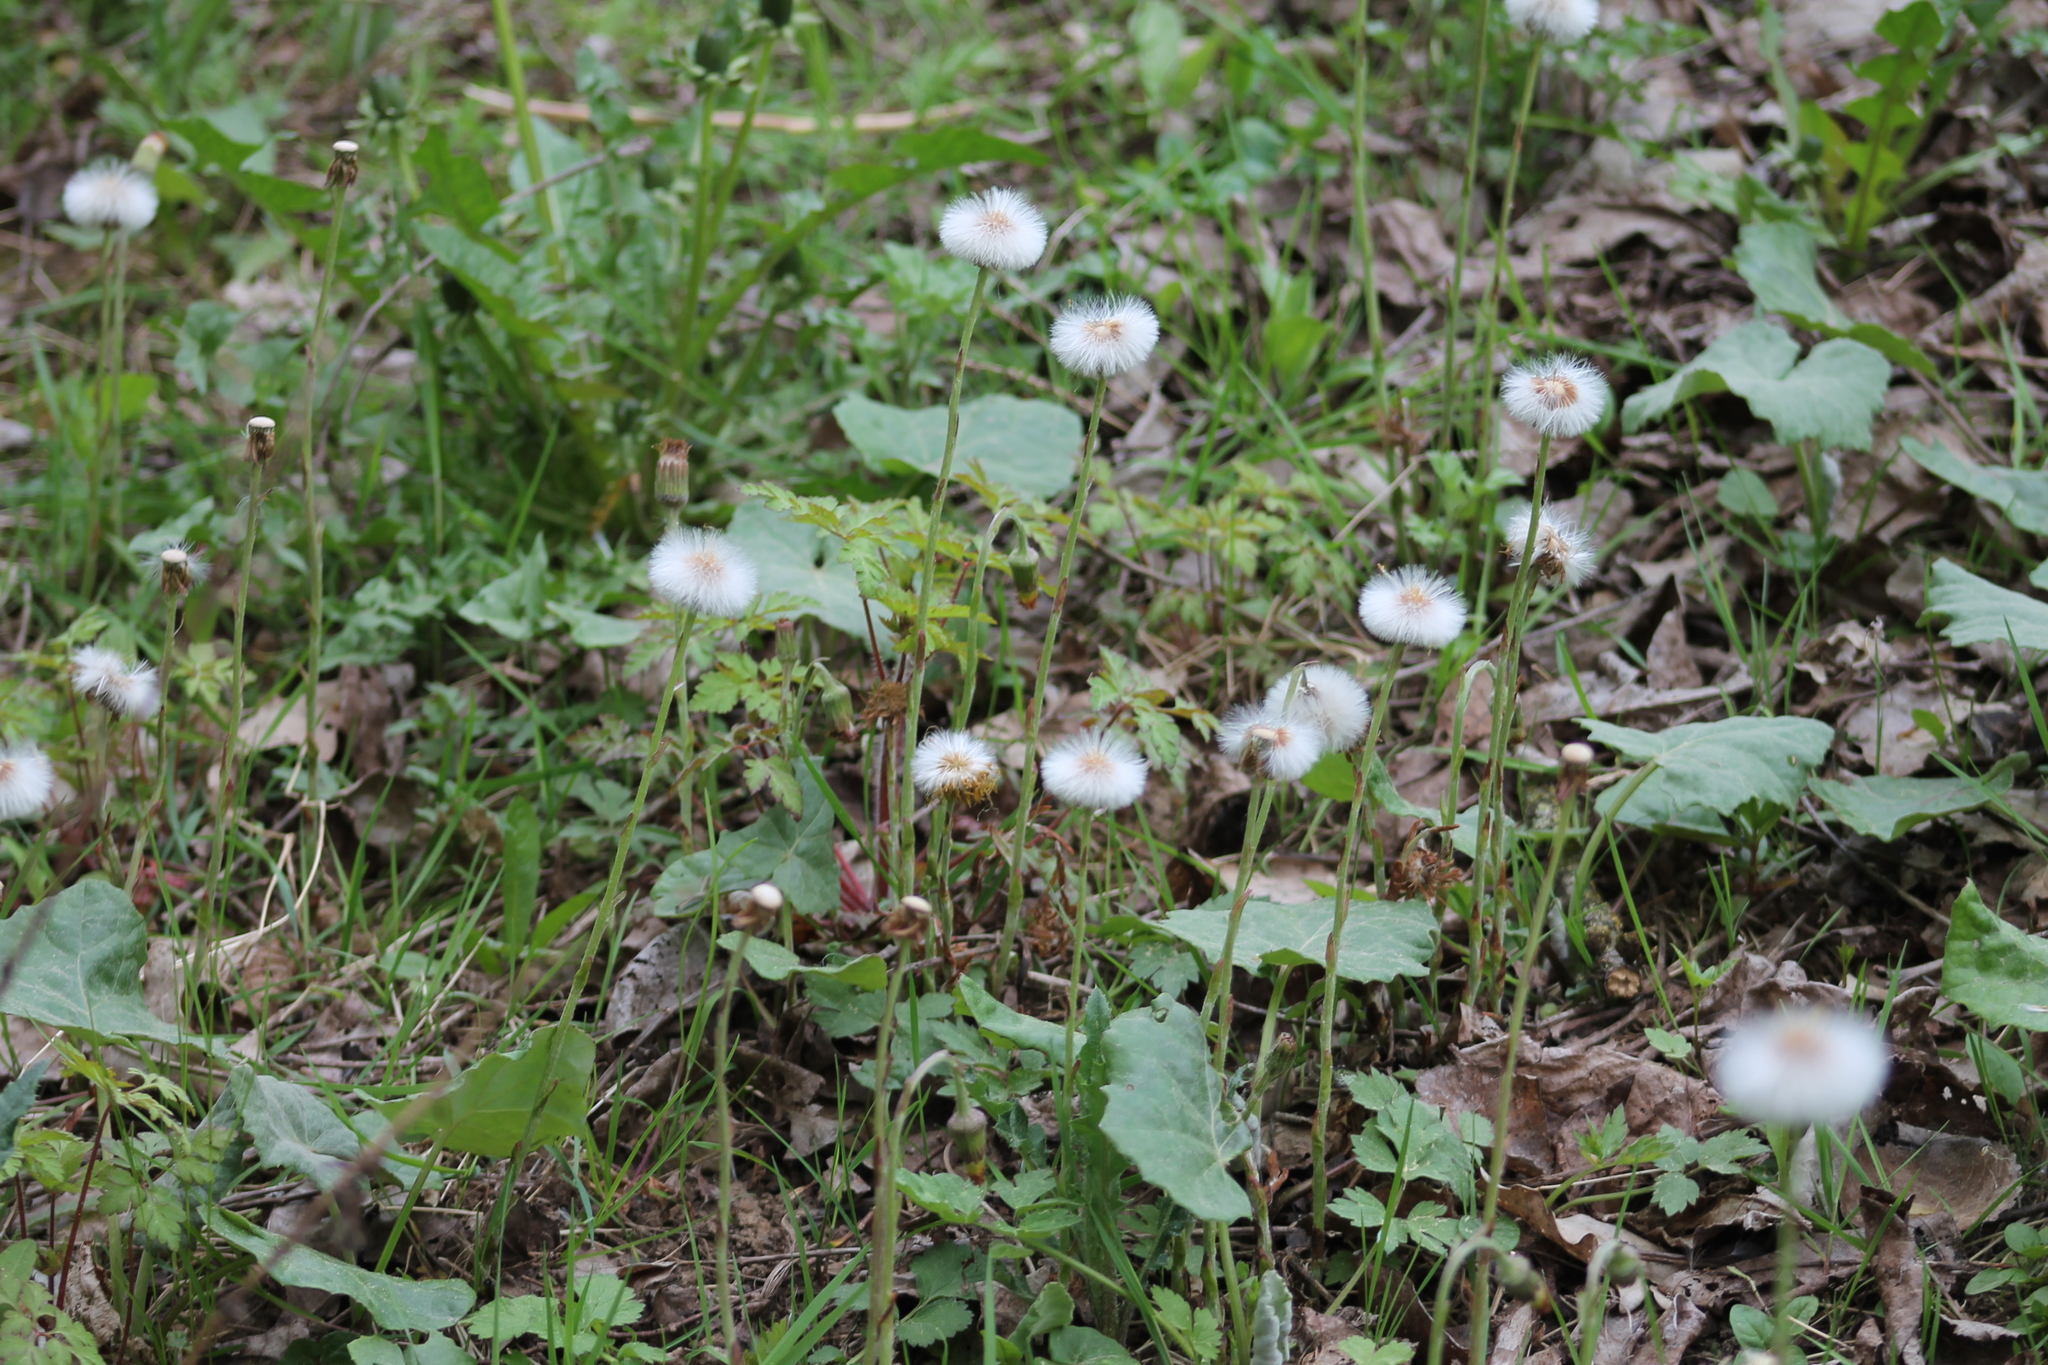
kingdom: Plantae
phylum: Tracheophyta
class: Magnoliopsida
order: Asterales
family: Asteraceae
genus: Tussilago
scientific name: Tussilago farfara
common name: Coltsfoot
